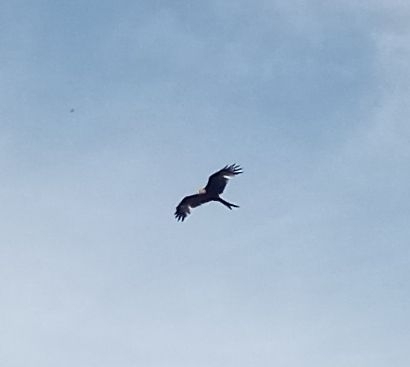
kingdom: Animalia
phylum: Chordata
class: Aves
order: Accipitriformes
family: Accipitridae
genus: Milvus
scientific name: Milvus milvus
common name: Red kite
